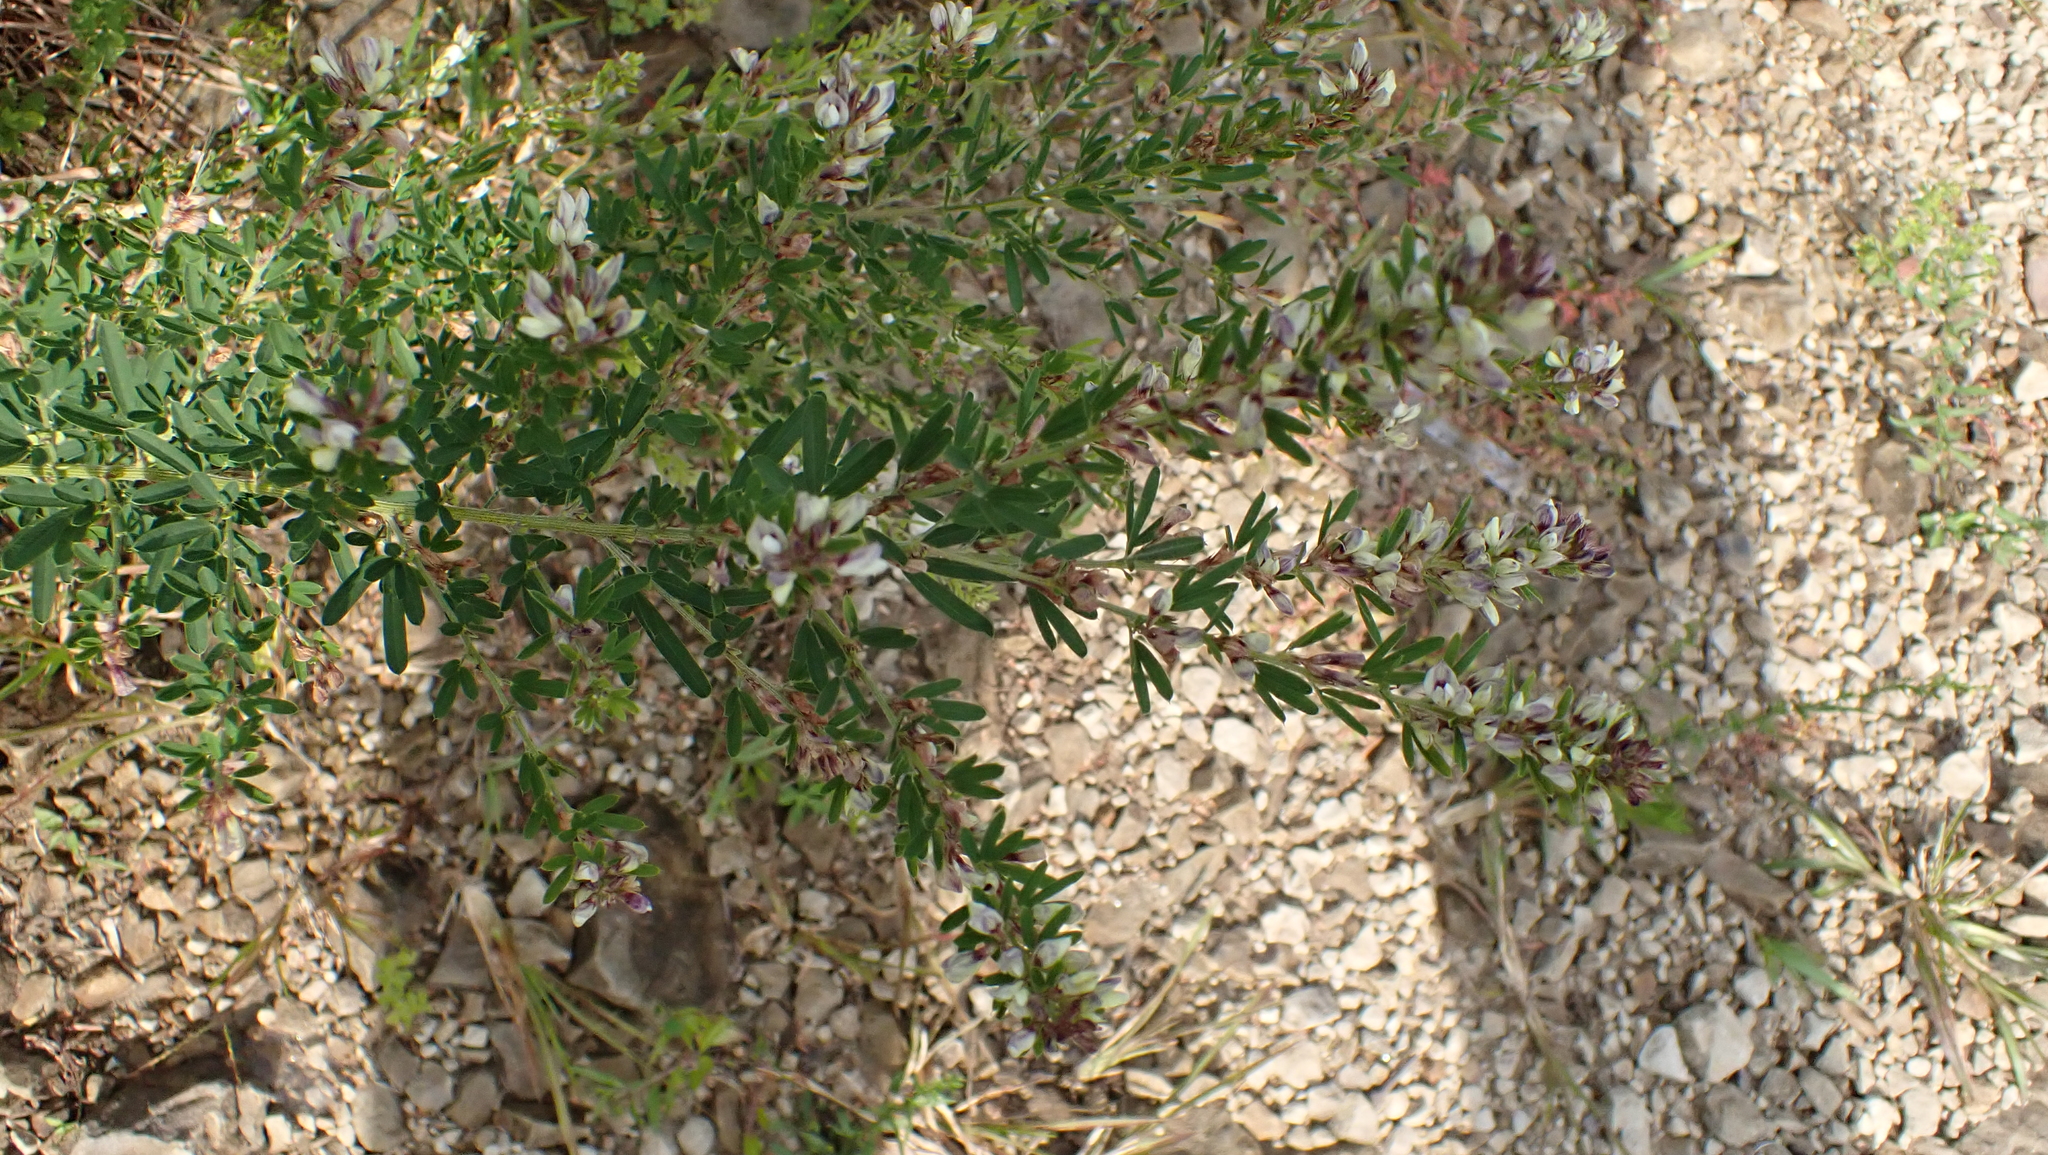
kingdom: Plantae
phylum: Tracheophyta
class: Magnoliopsida
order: Fabales
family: Fabaceae
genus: Lespedeza
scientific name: Lespedeza cuneata
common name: Chinese bush-clover
